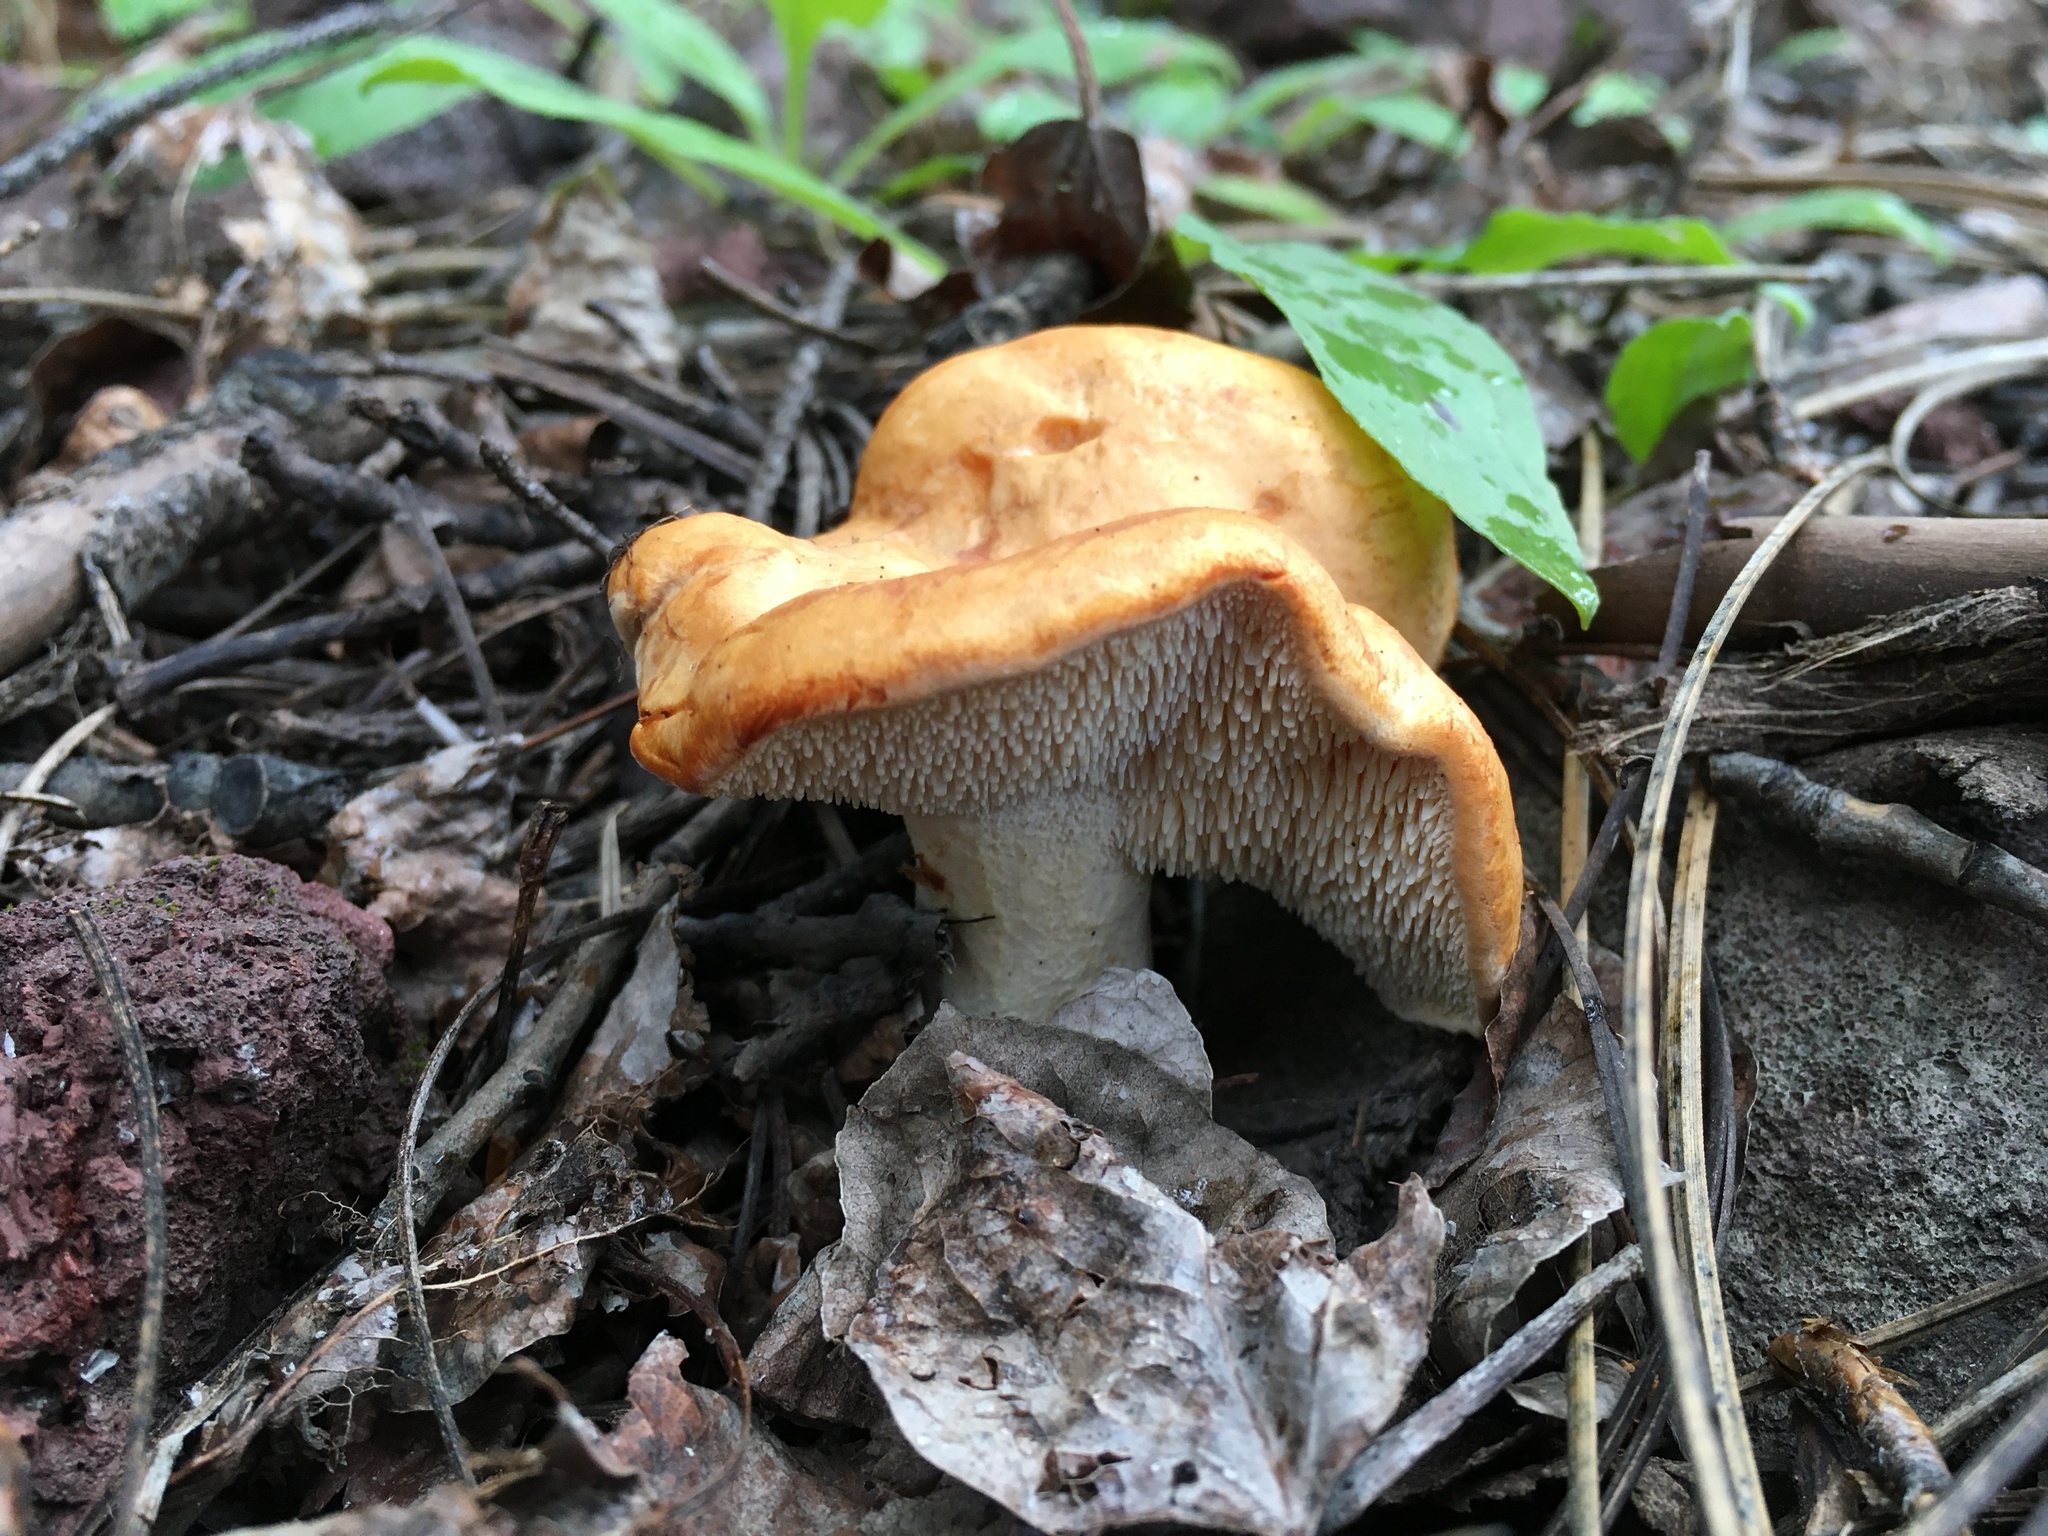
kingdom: Fungi
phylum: Basidiomycota
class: Agaricomycetes
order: Cantharellales
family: Hydnaceae
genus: Hydnum
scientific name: Hydnum melitosarx
